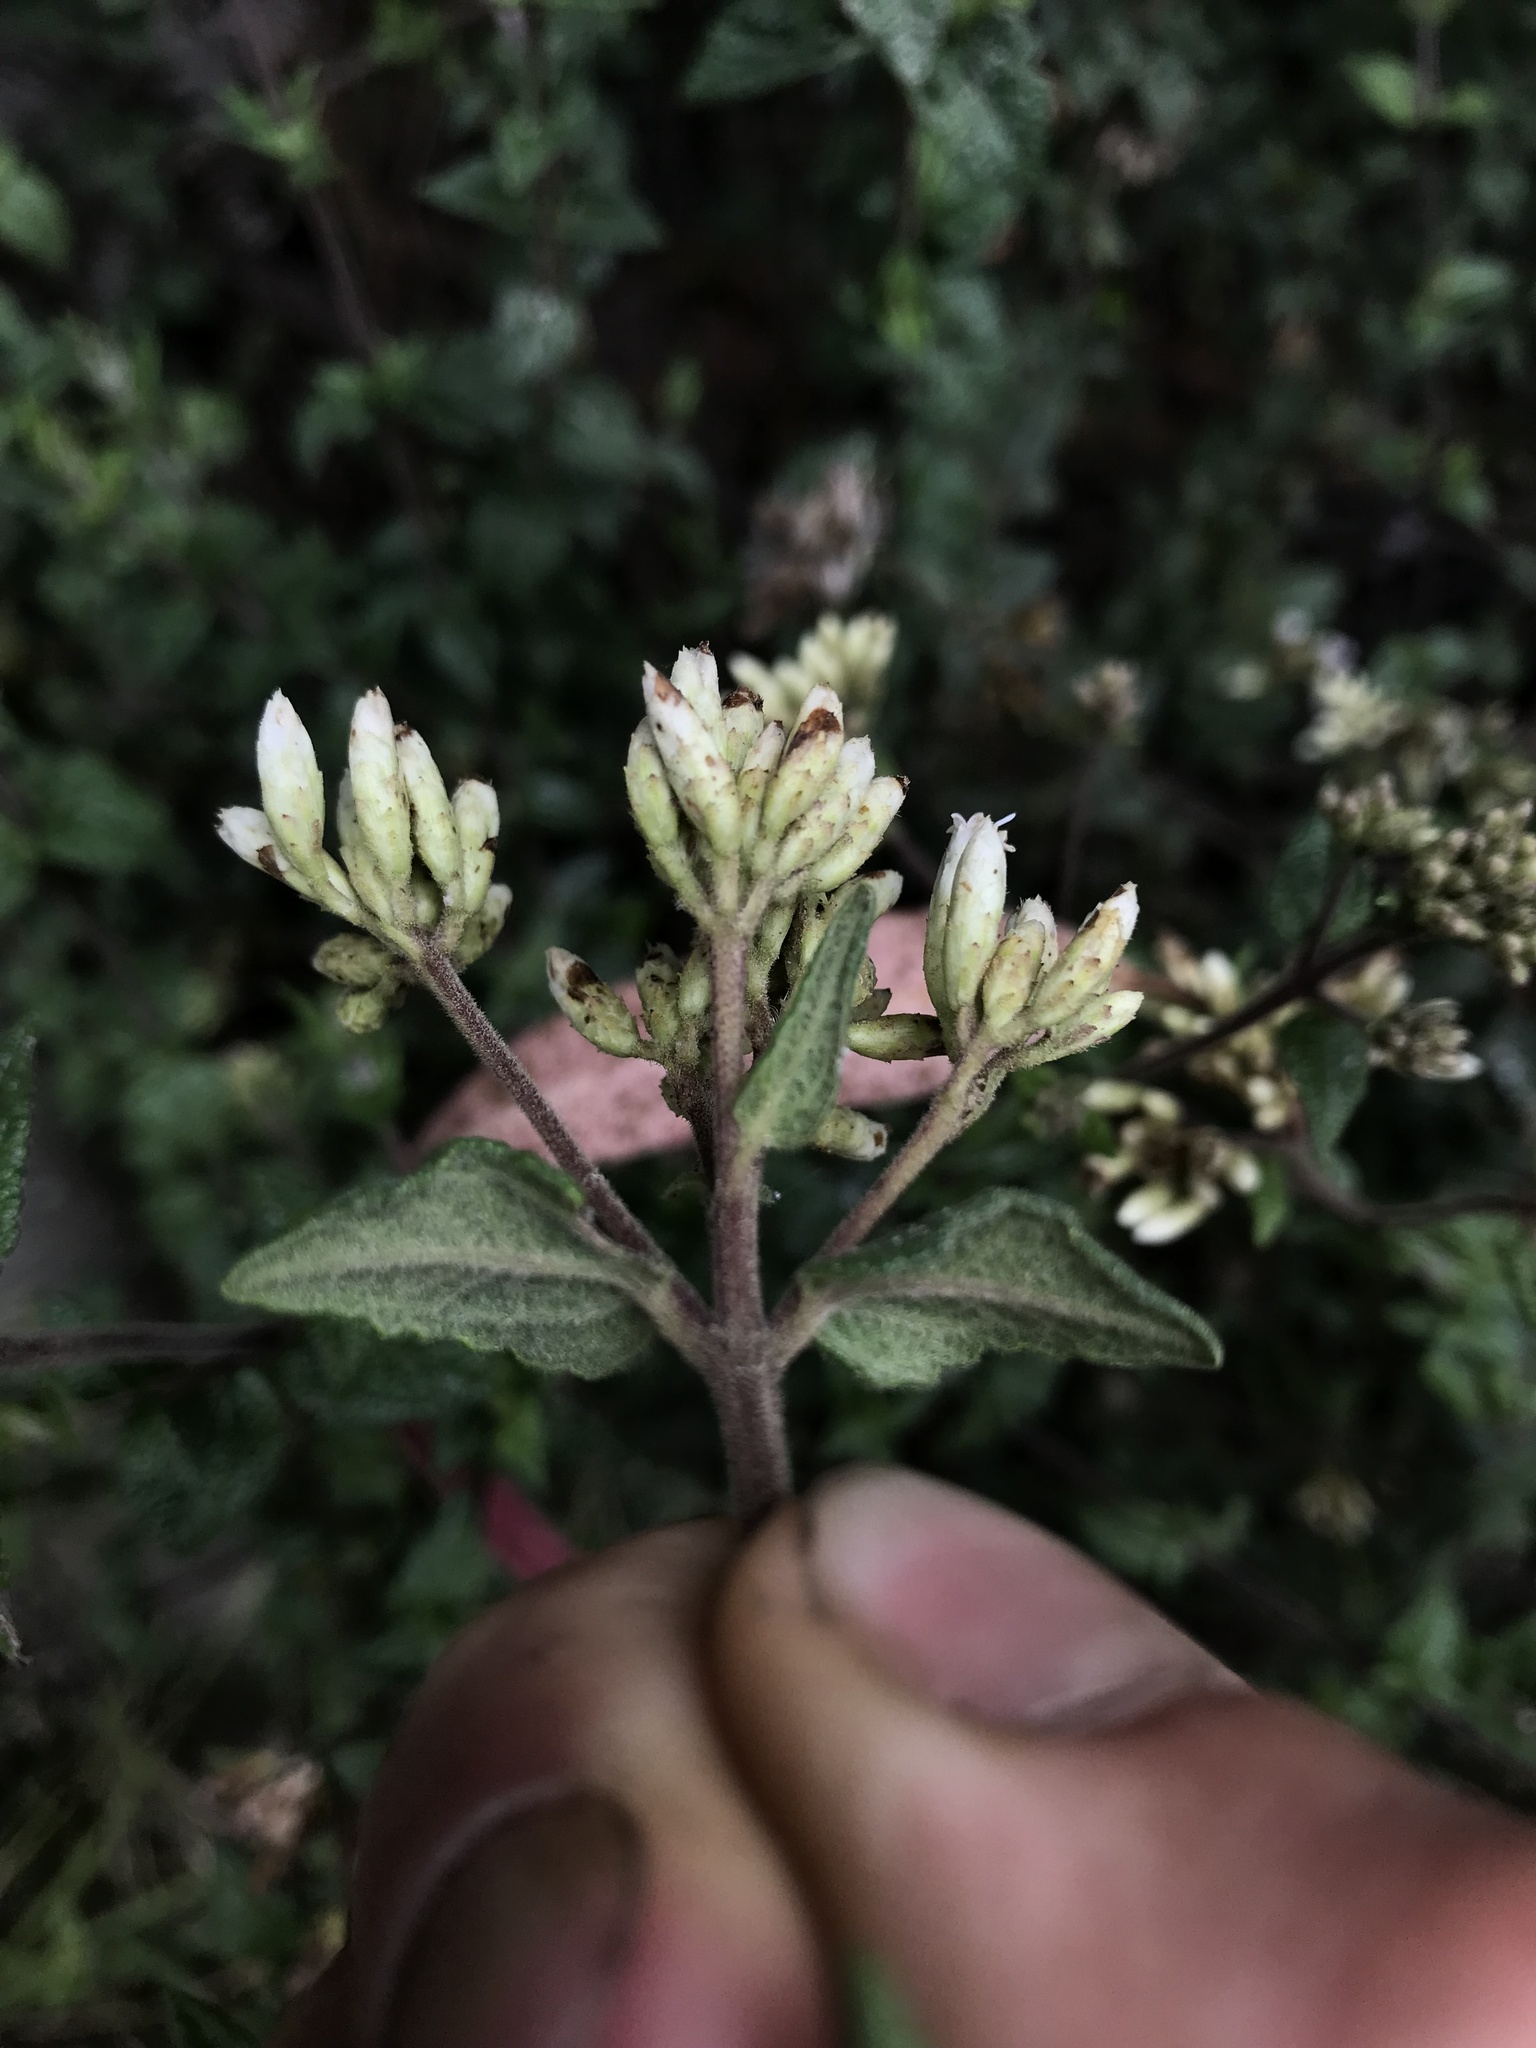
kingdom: Plantae
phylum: Tracheophyta
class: Magnoliopsida
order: Asterales
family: Asteraceae
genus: Chromolaena
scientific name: Chromolaena bullata
